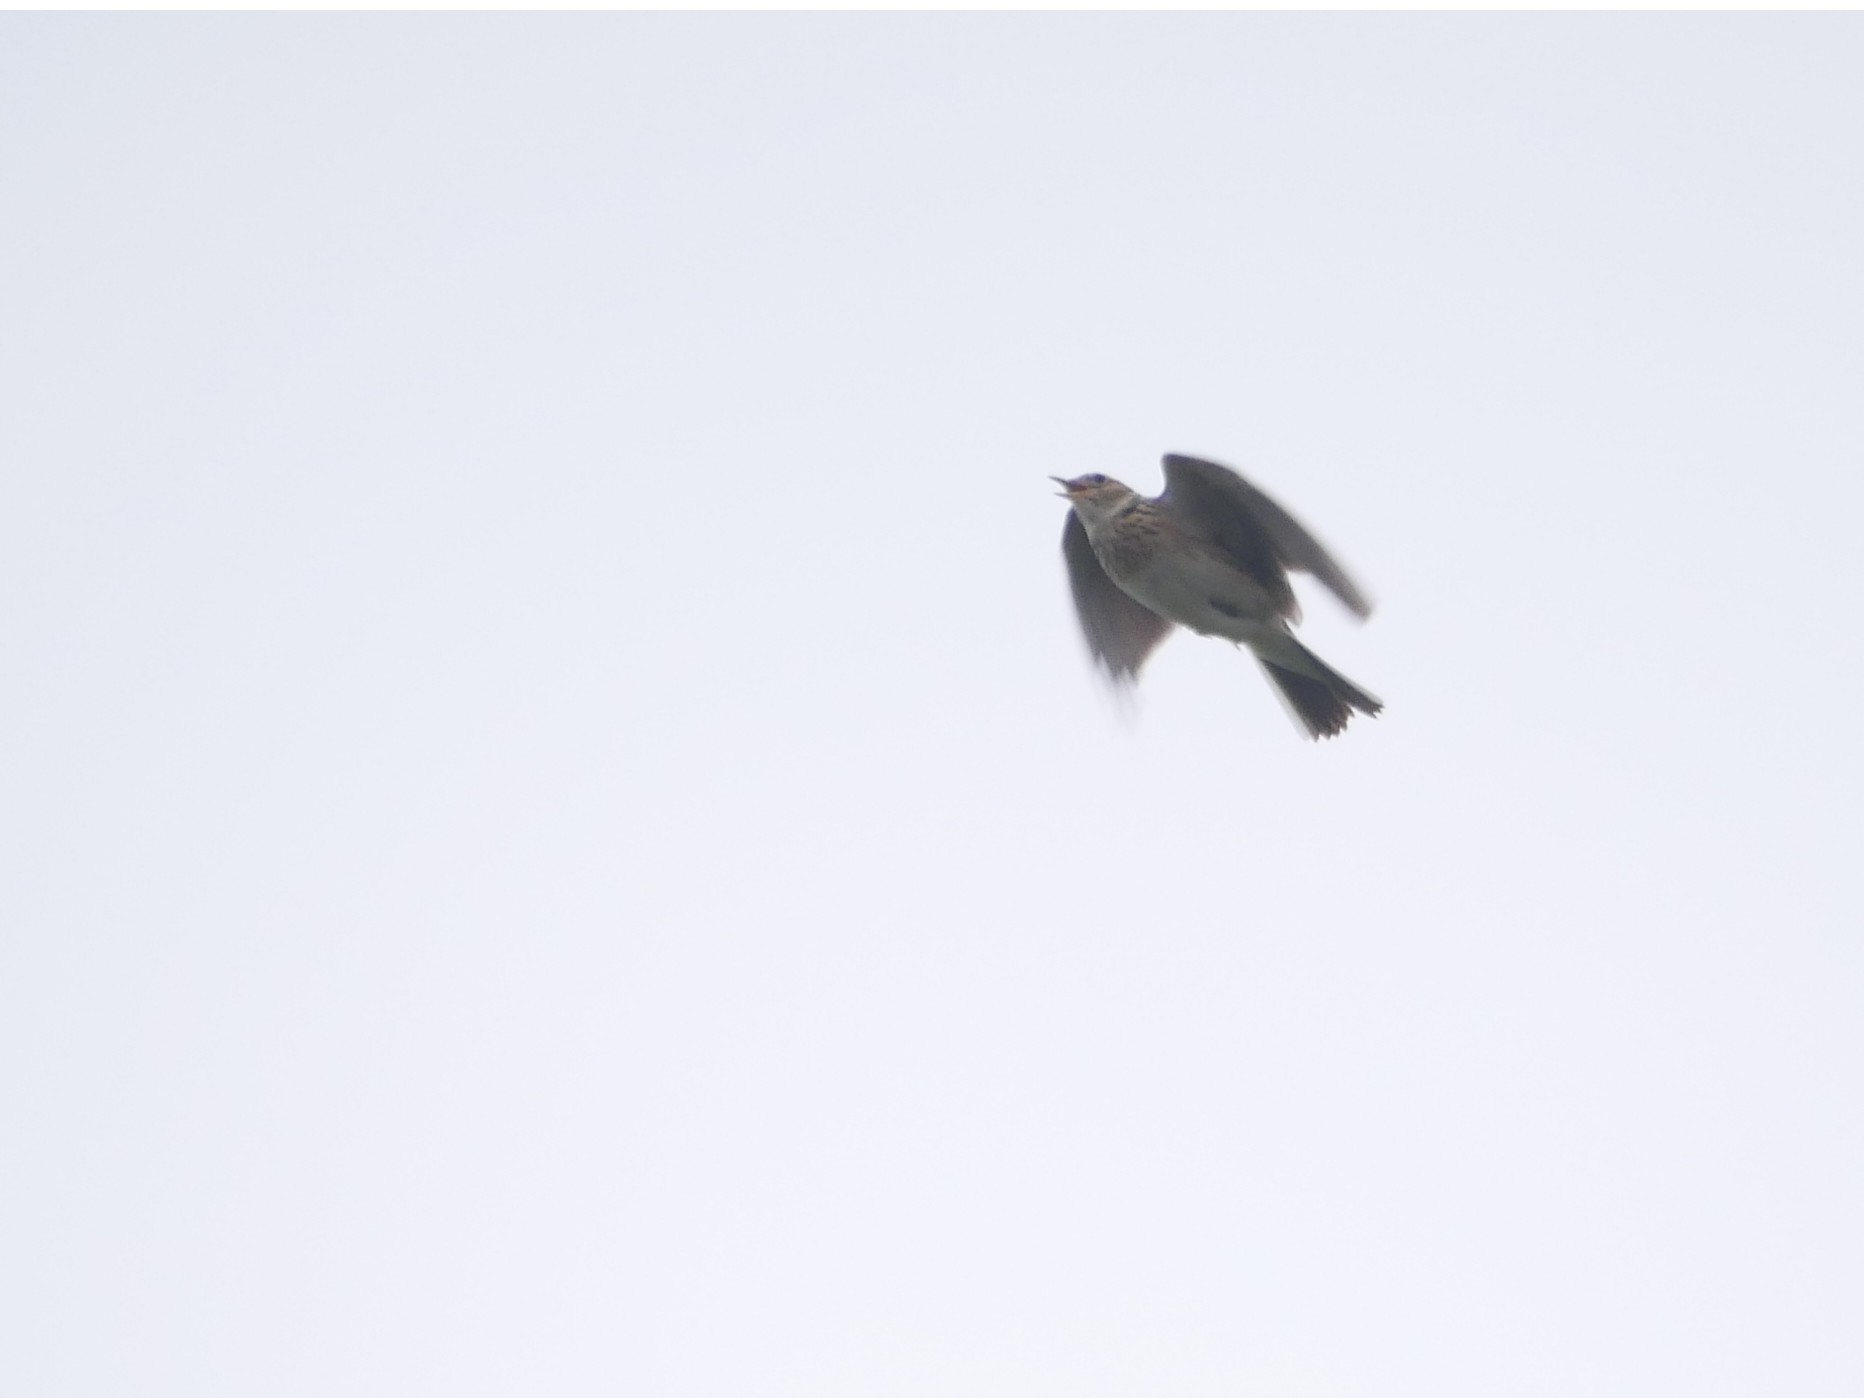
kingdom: Animalia
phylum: Chordata
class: Aves
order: Passeriformes
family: Alaudidae
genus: Alauda
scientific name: Alauda arvensis
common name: Eurasian skylark
